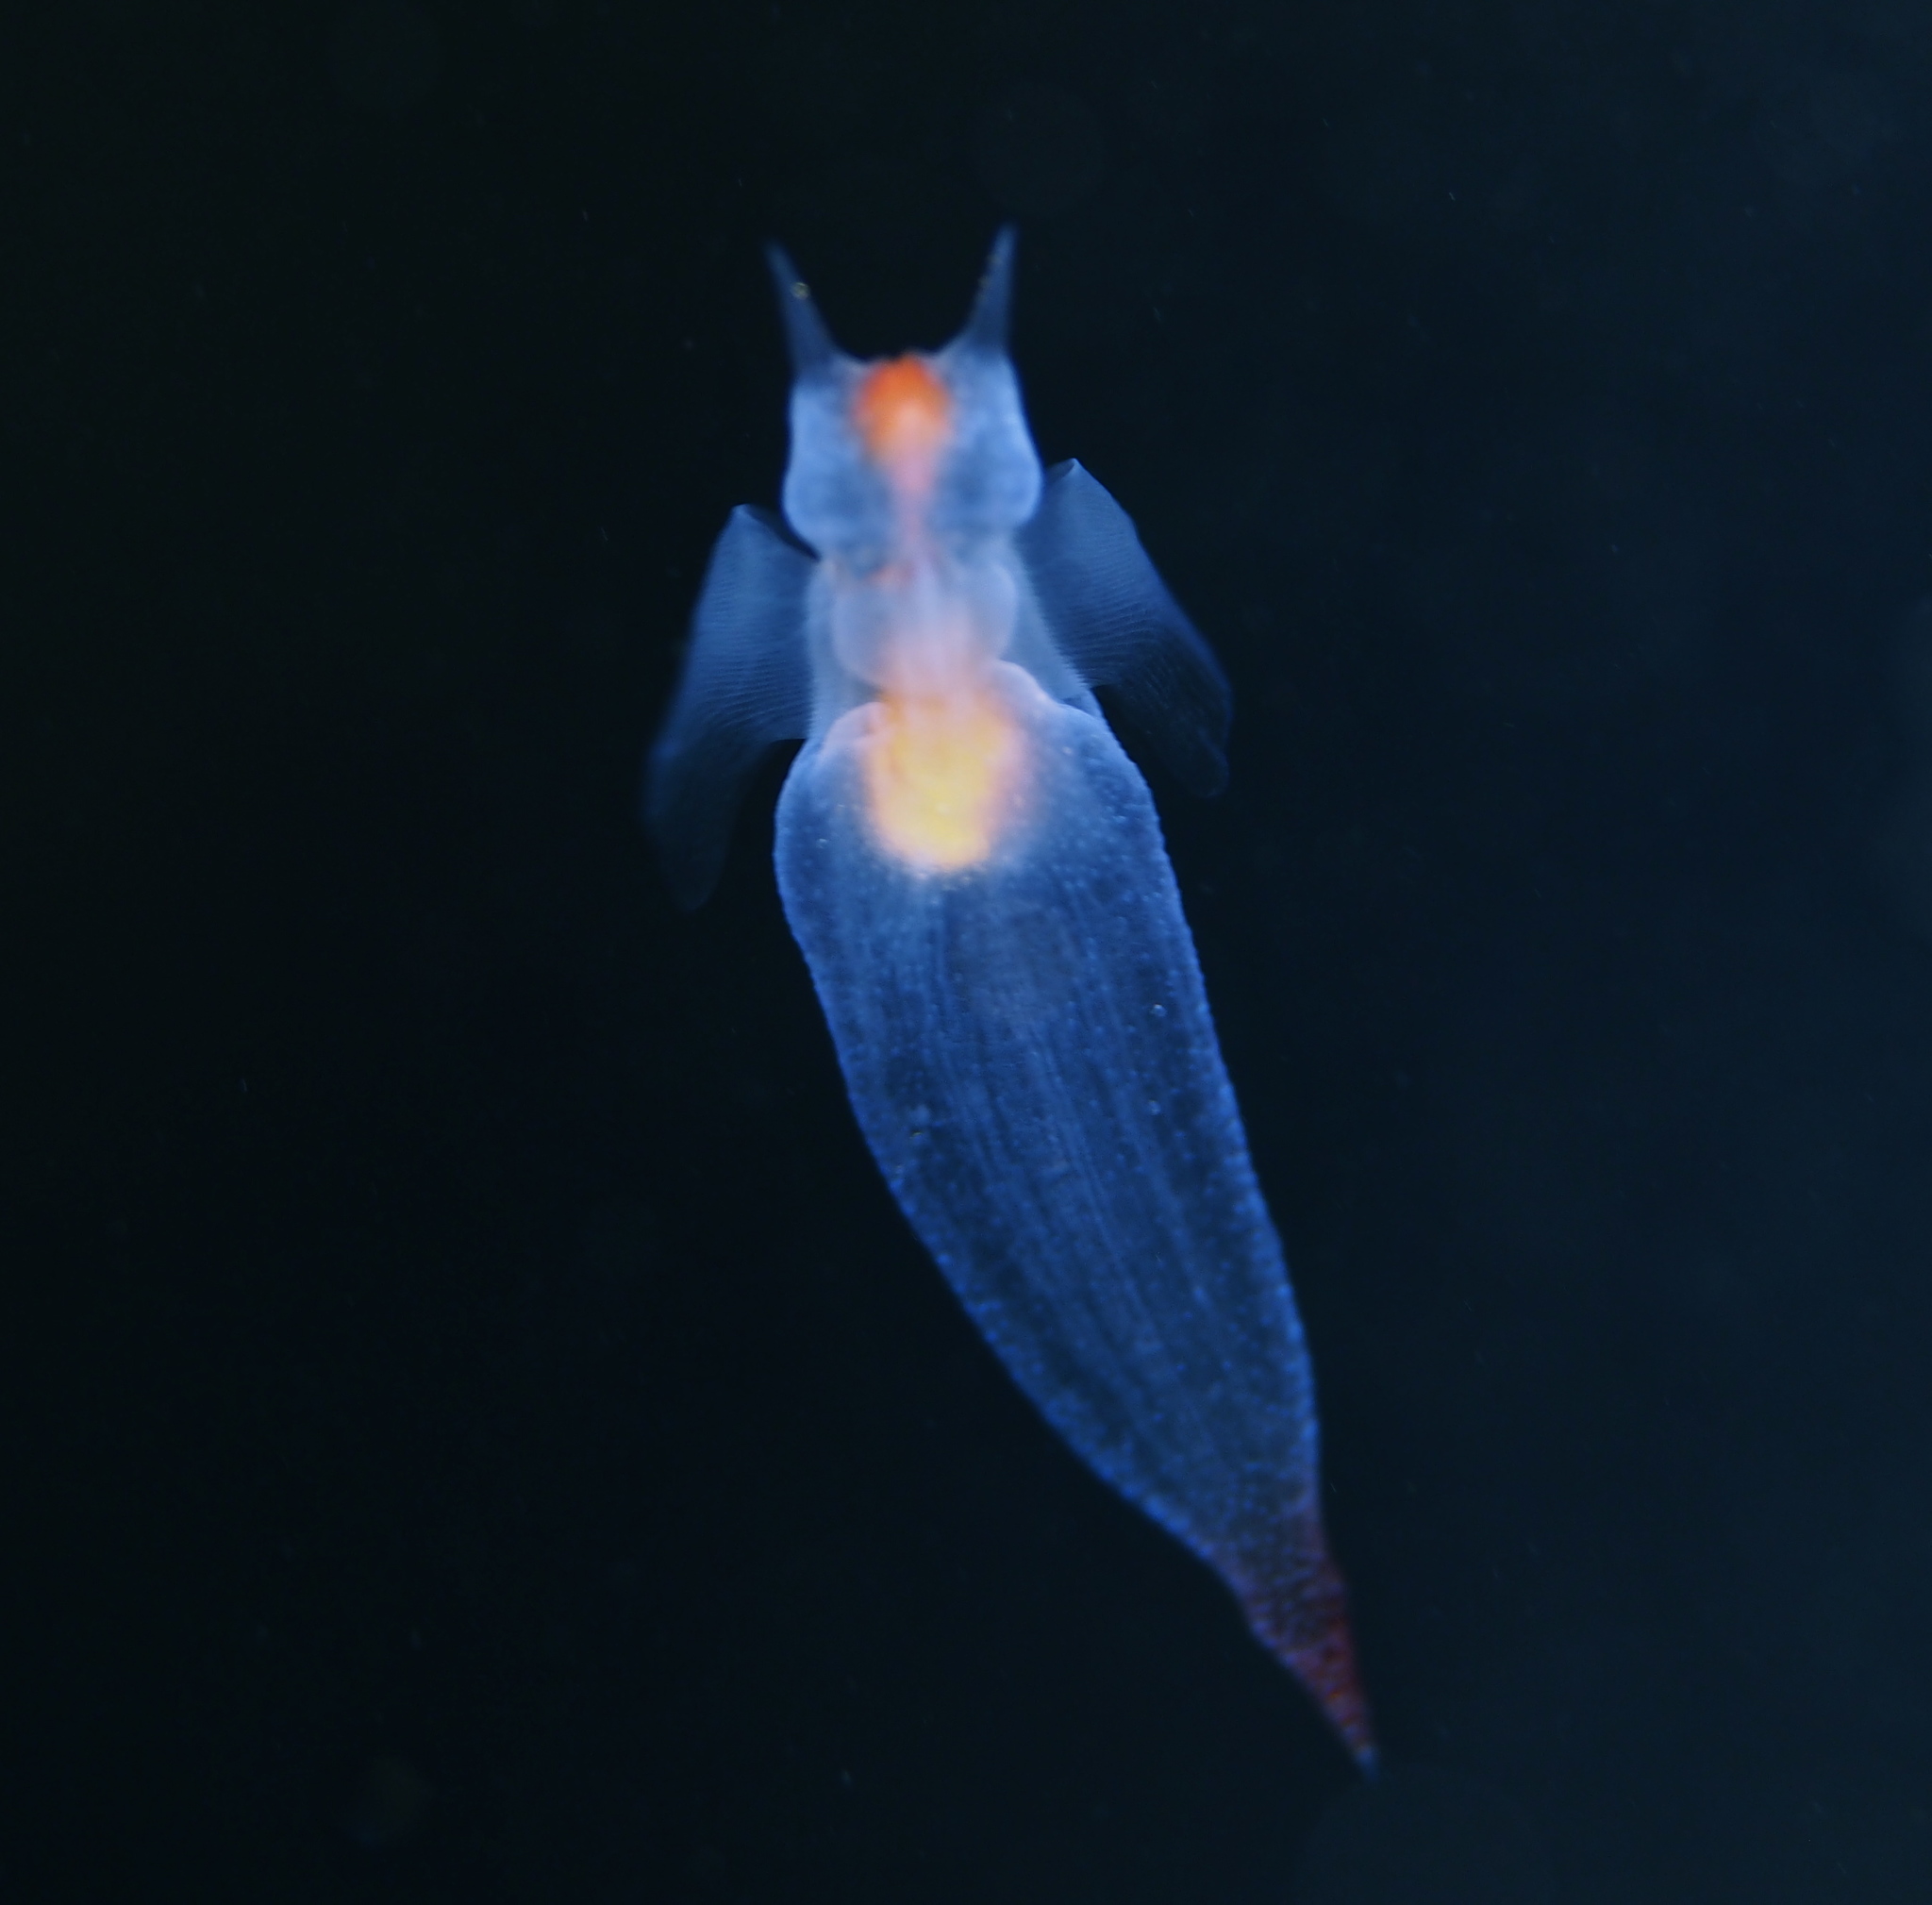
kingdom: Animalia
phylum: Mollusca
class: Gastropoda
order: Pteropoda
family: Clionidae
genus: Clione
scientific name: Clione limacina
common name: Common clione
